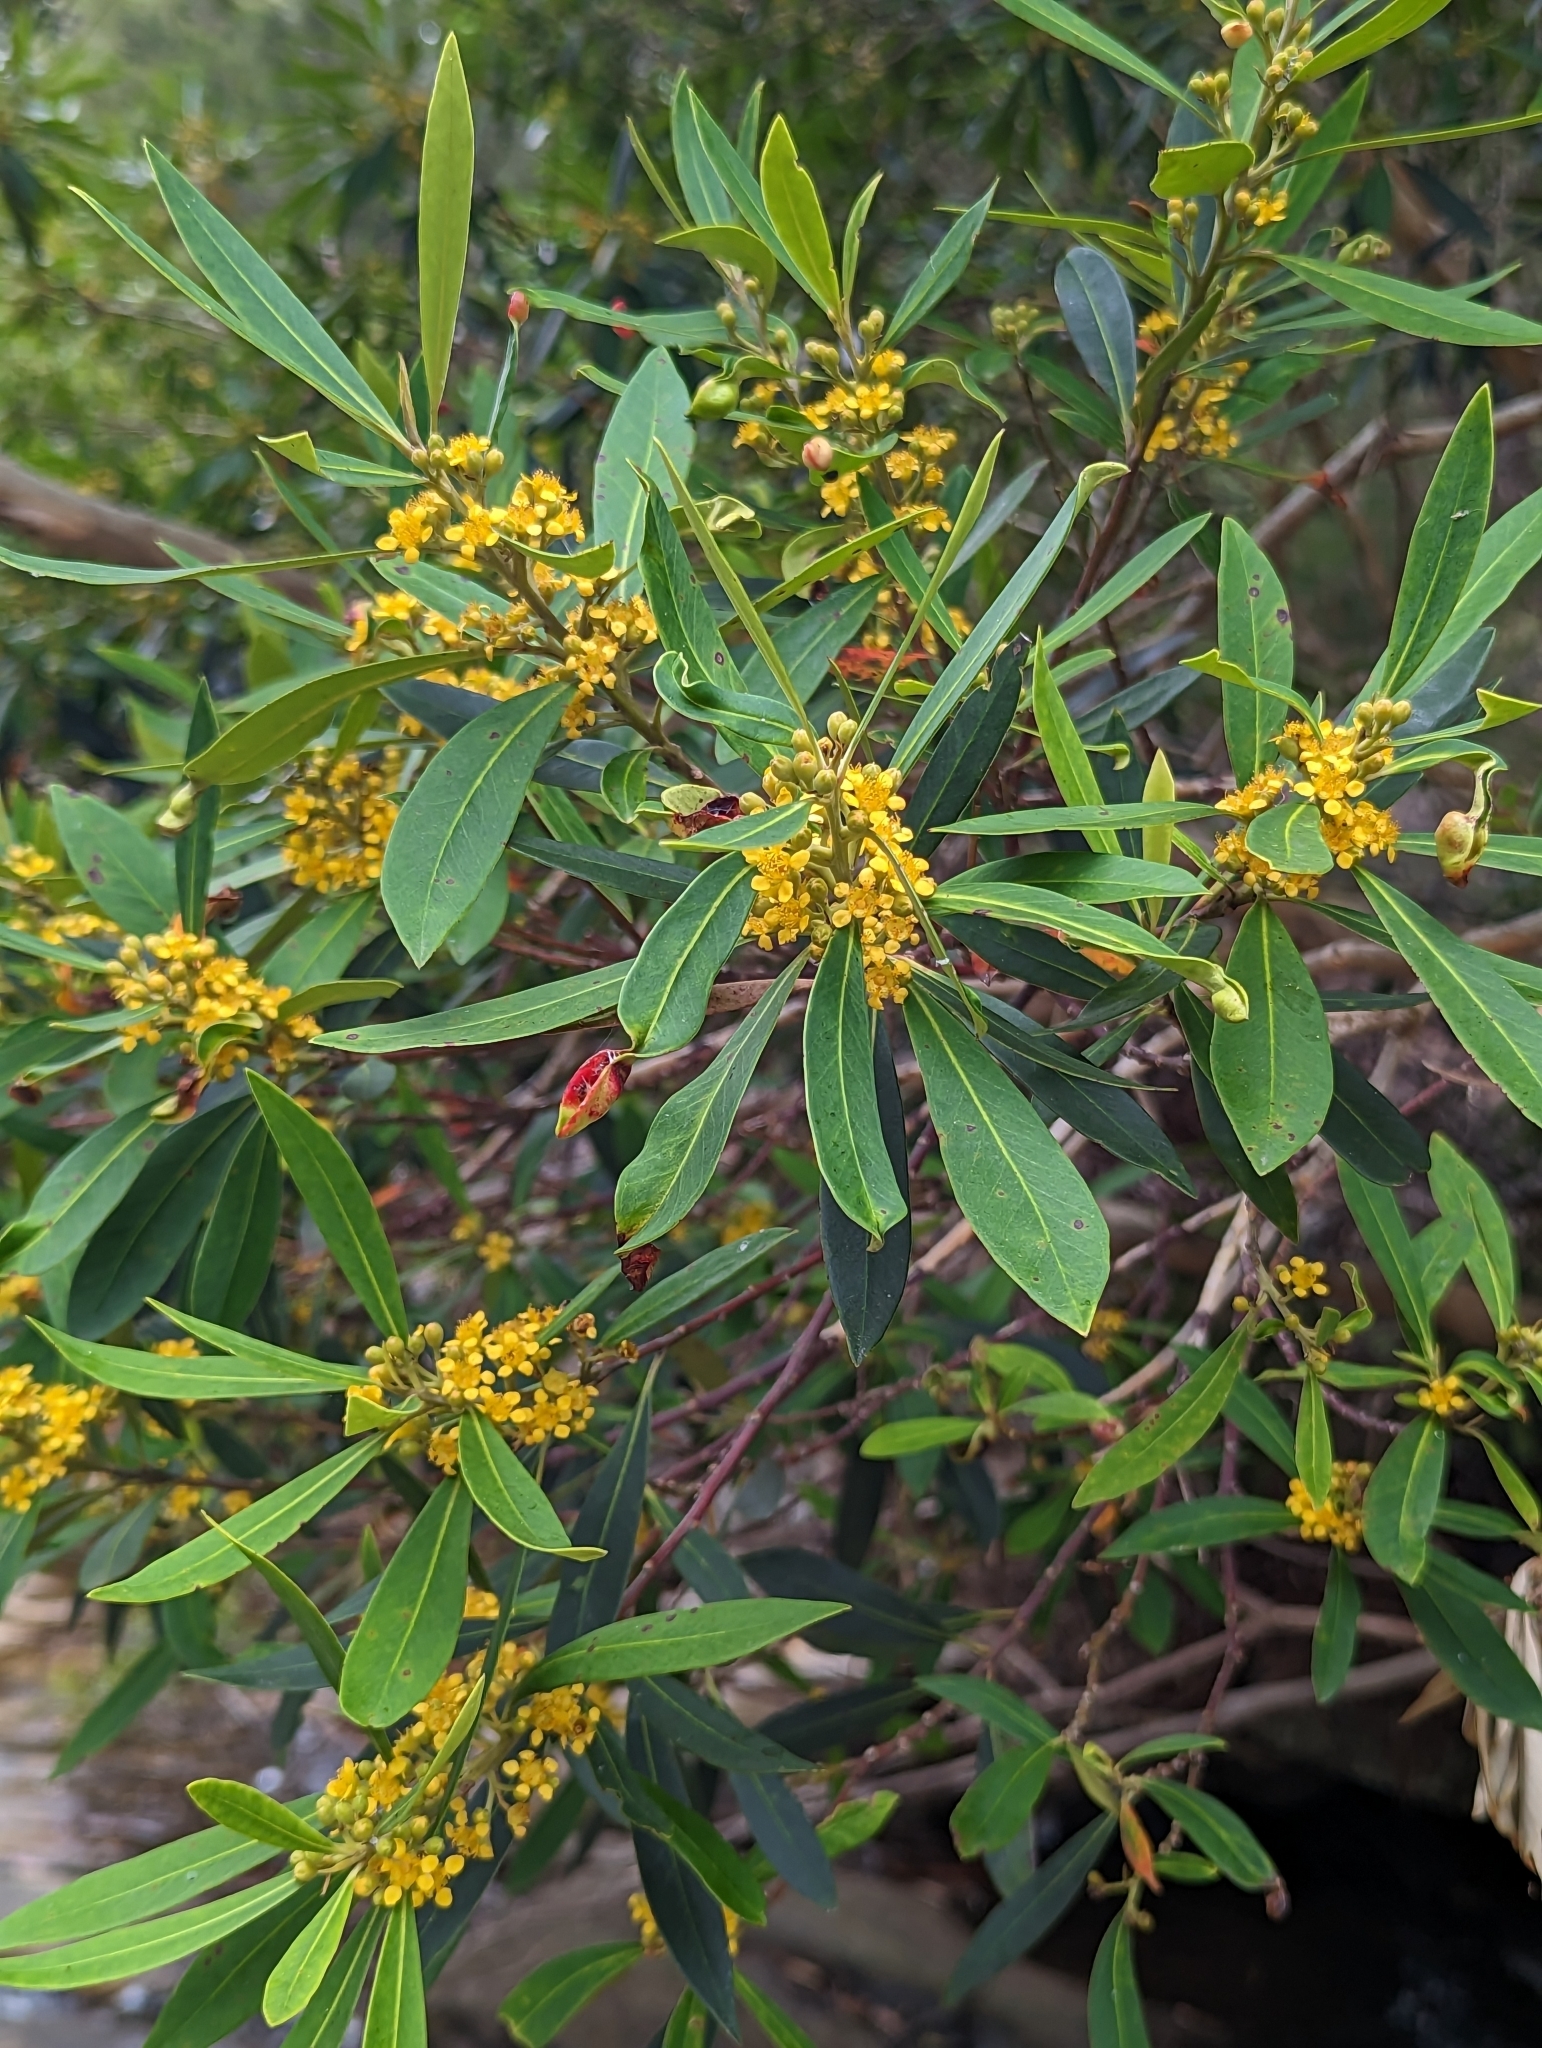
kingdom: Plantae
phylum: Tracheophyta
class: Magnoliopsida
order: Myrtales
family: Myrtaceae
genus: Tristaniopsis
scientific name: Tristaniopsis laurina
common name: Water-gum
